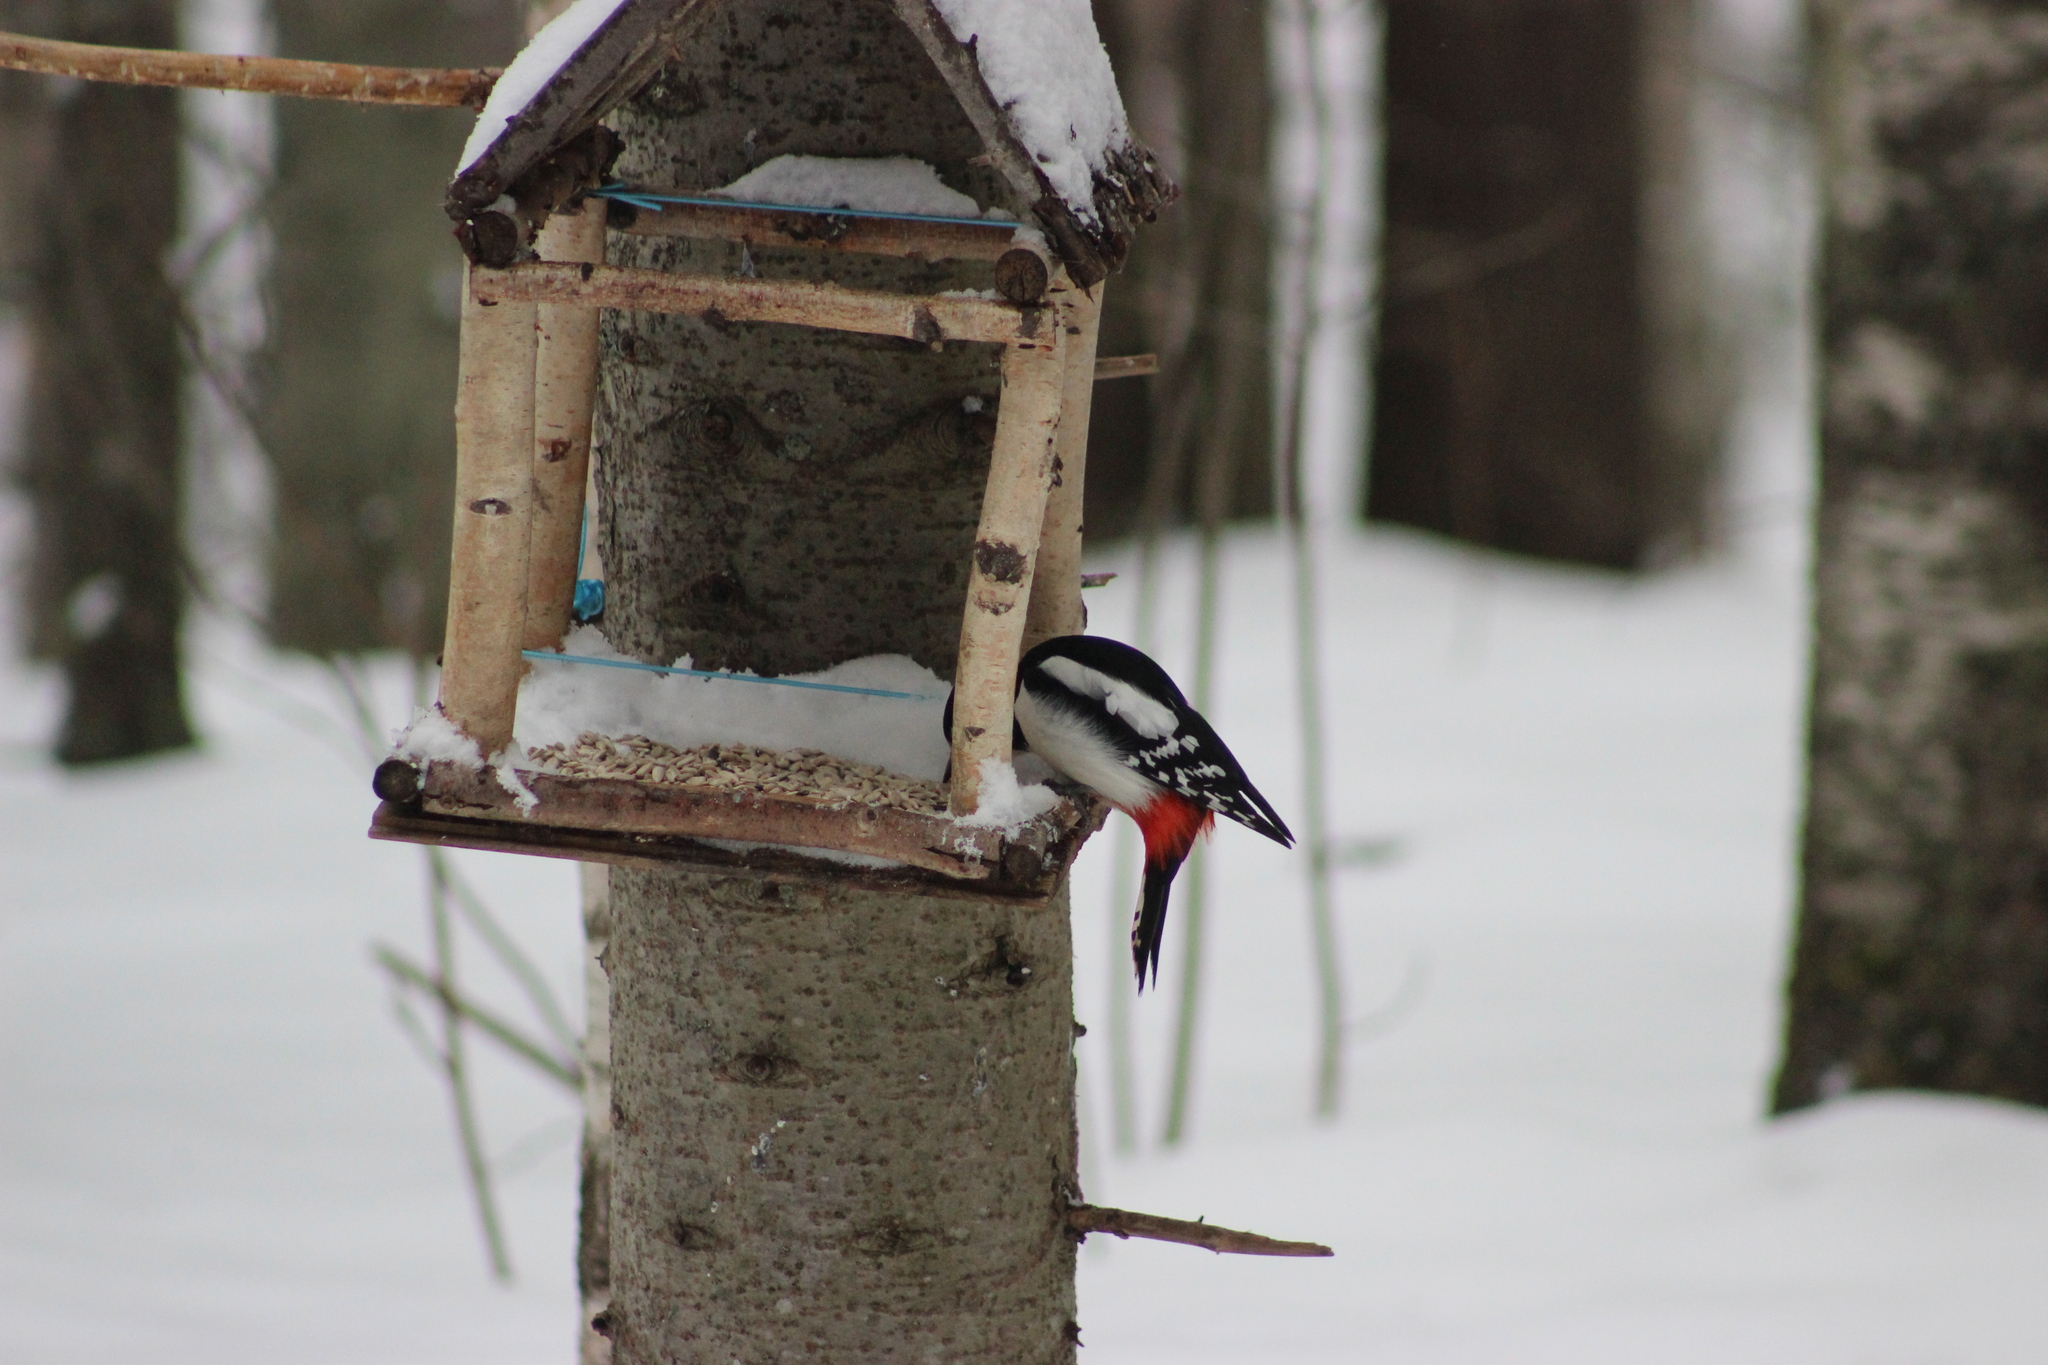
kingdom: Animalia
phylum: Chordata
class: Aves
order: Piciformes
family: Picidae
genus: Dendrocopos
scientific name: Dendrocopos major
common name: Great spotted woodpecker
